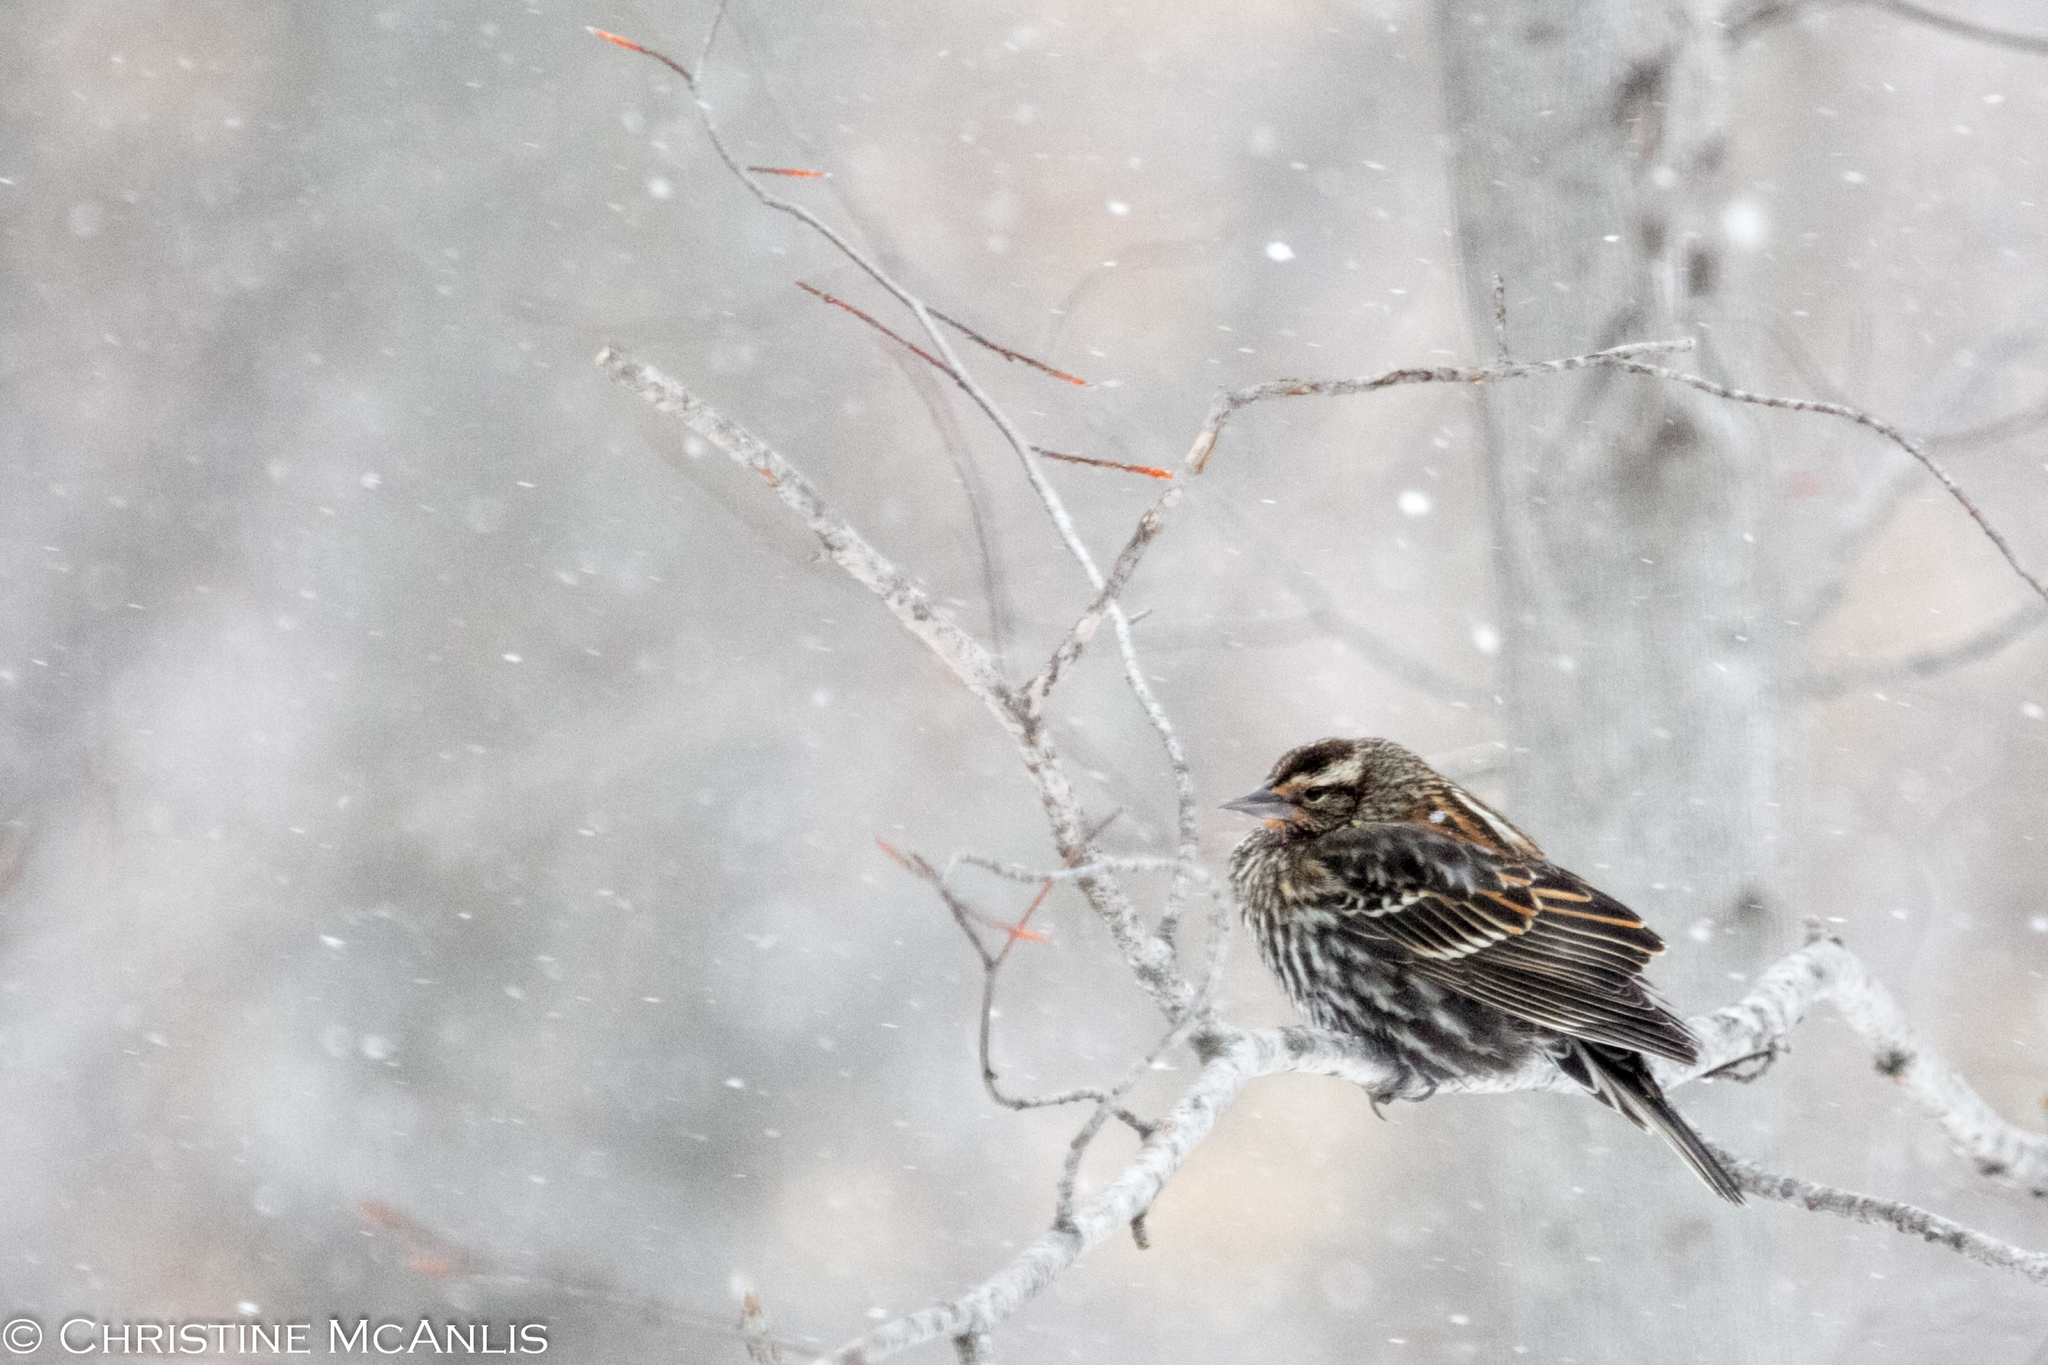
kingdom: Animalia
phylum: Chordata
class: Aves
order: Passeriformes
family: Icteridae
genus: Agelaius
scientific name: Agelaius phoeniceus
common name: Red-winged blackbird
